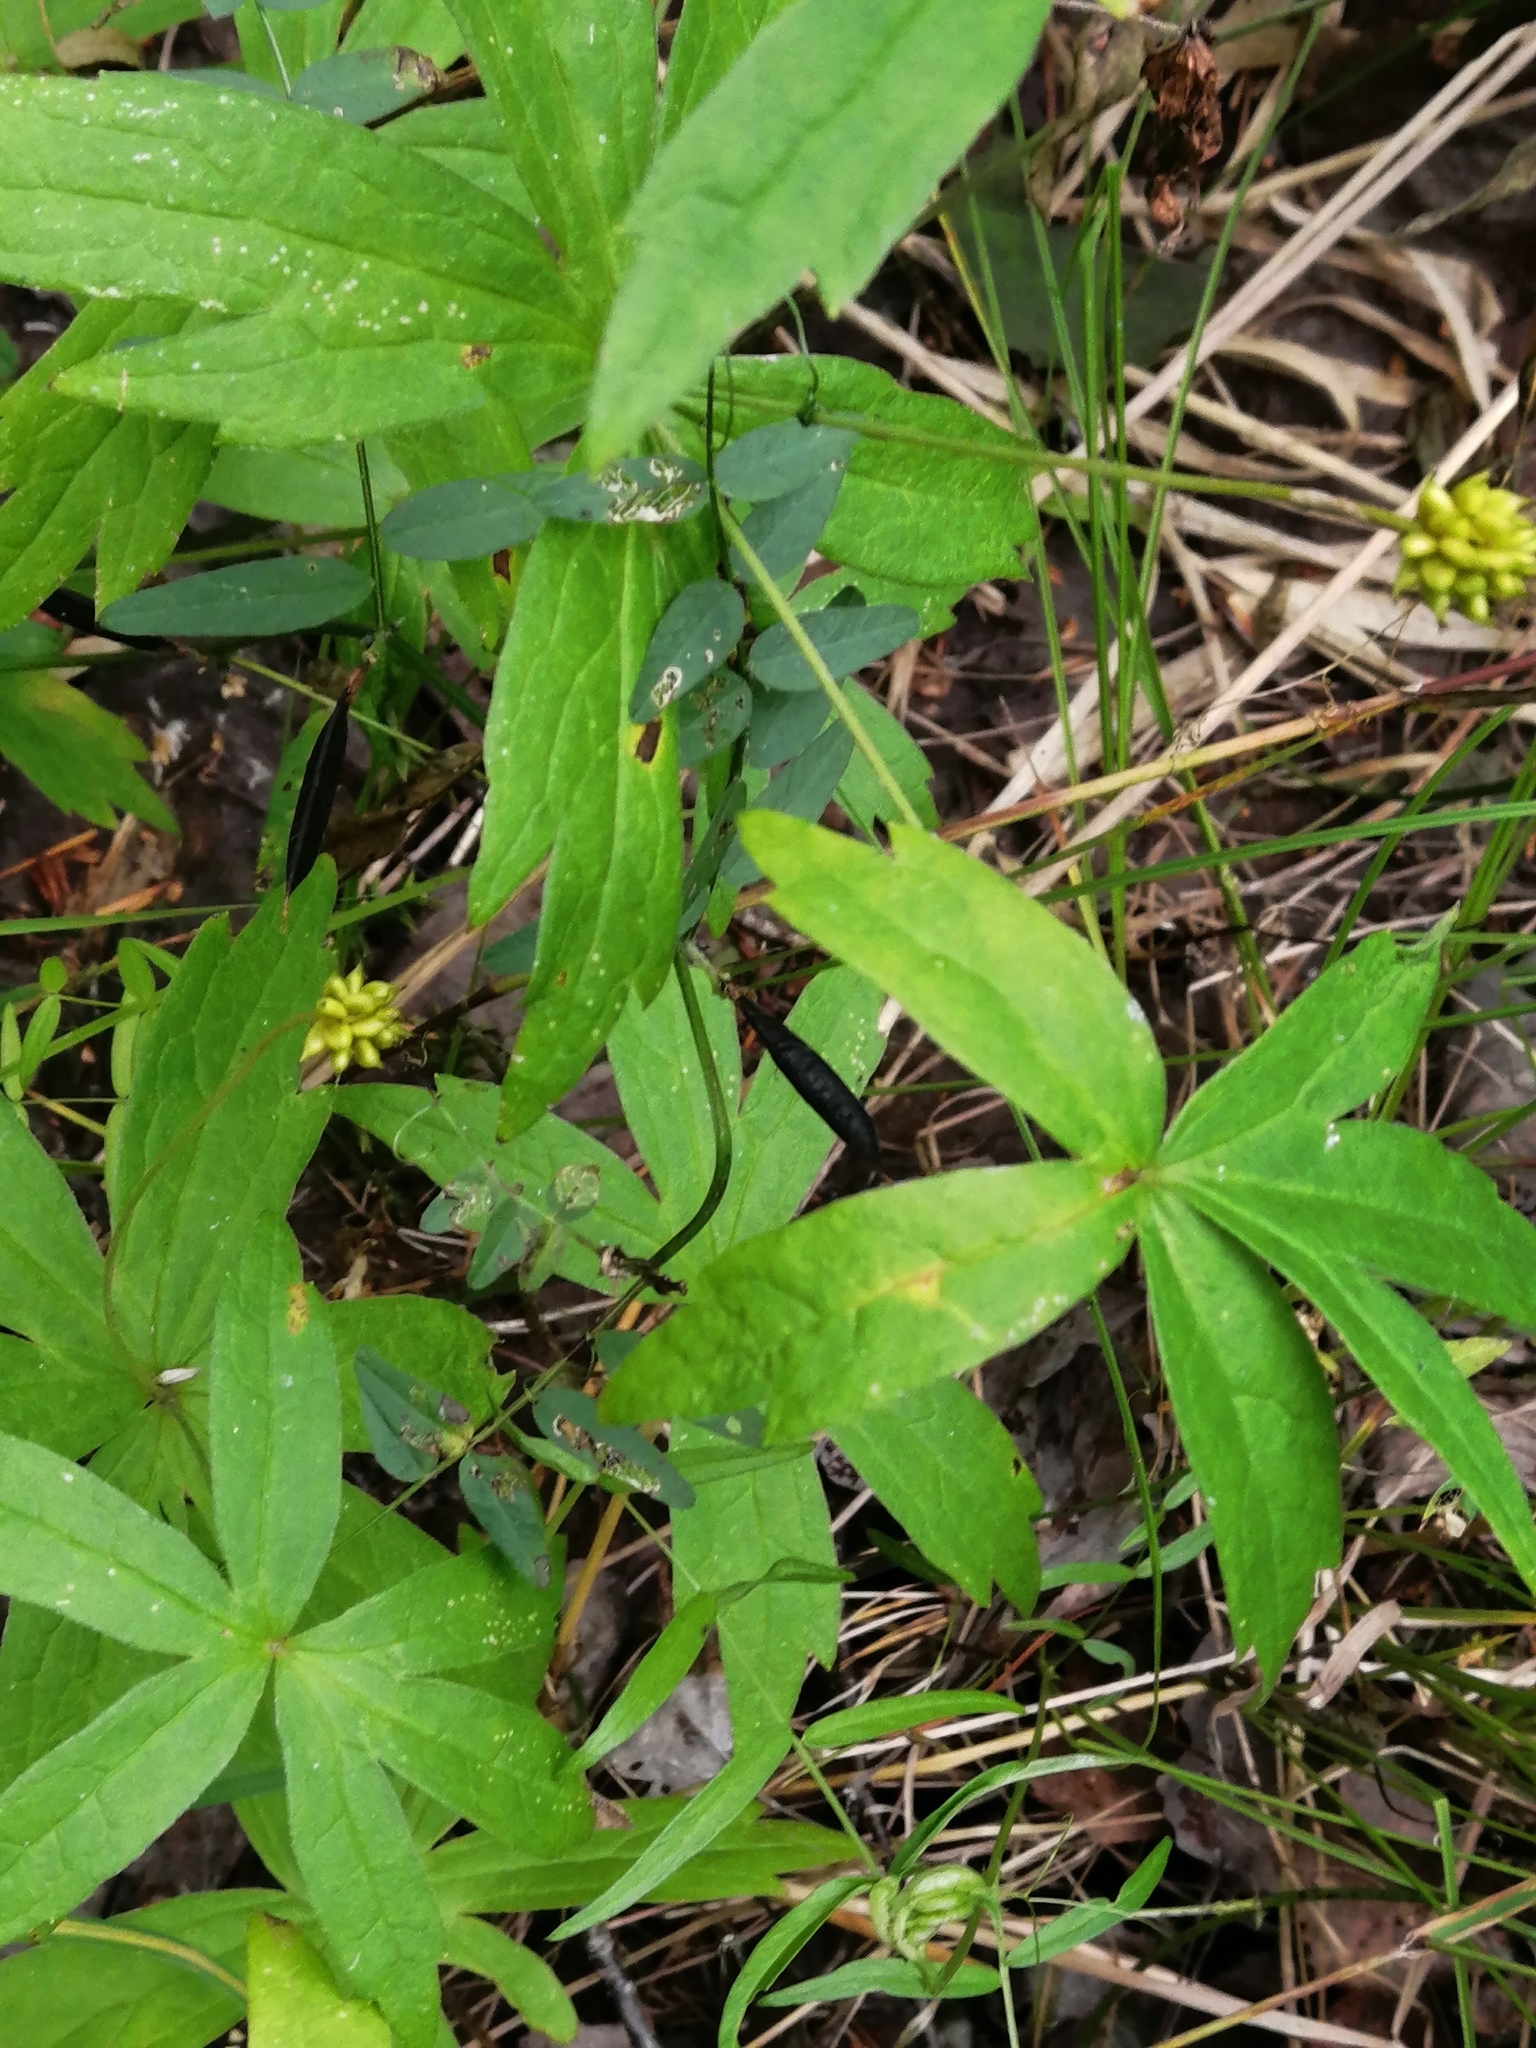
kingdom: Plantae
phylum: Tracheophyta
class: Magnoliopsida
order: Ranunculales
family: Ranunculaceae
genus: Anemonastrum
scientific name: Anemonastrum dichotomum
